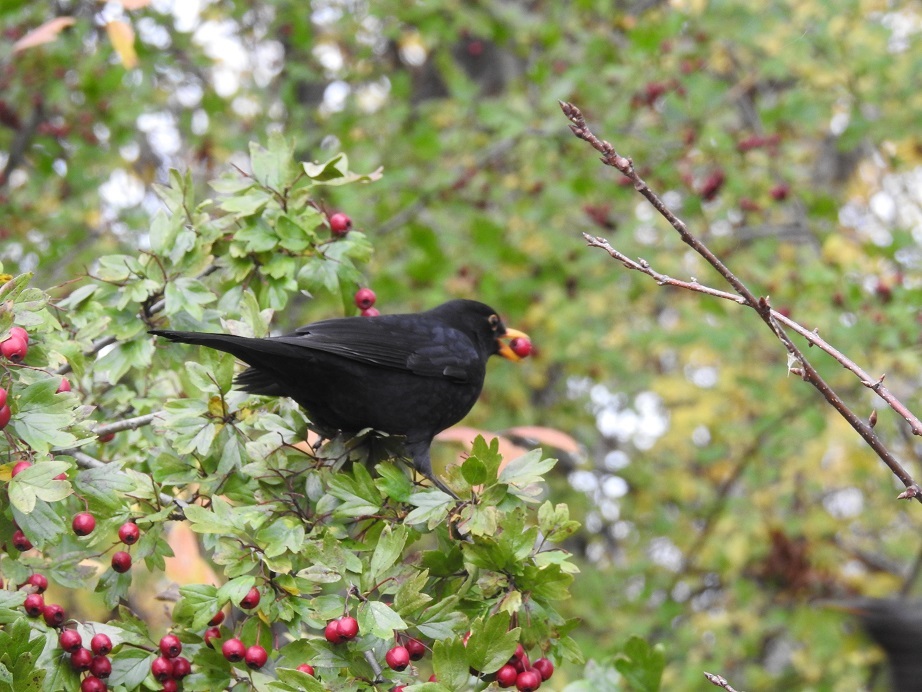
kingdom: Animalia
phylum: Chordata
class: Aves
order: Passeriformes
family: Turdidae
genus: Turdus
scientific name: Turdus merula
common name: Common blackbird
